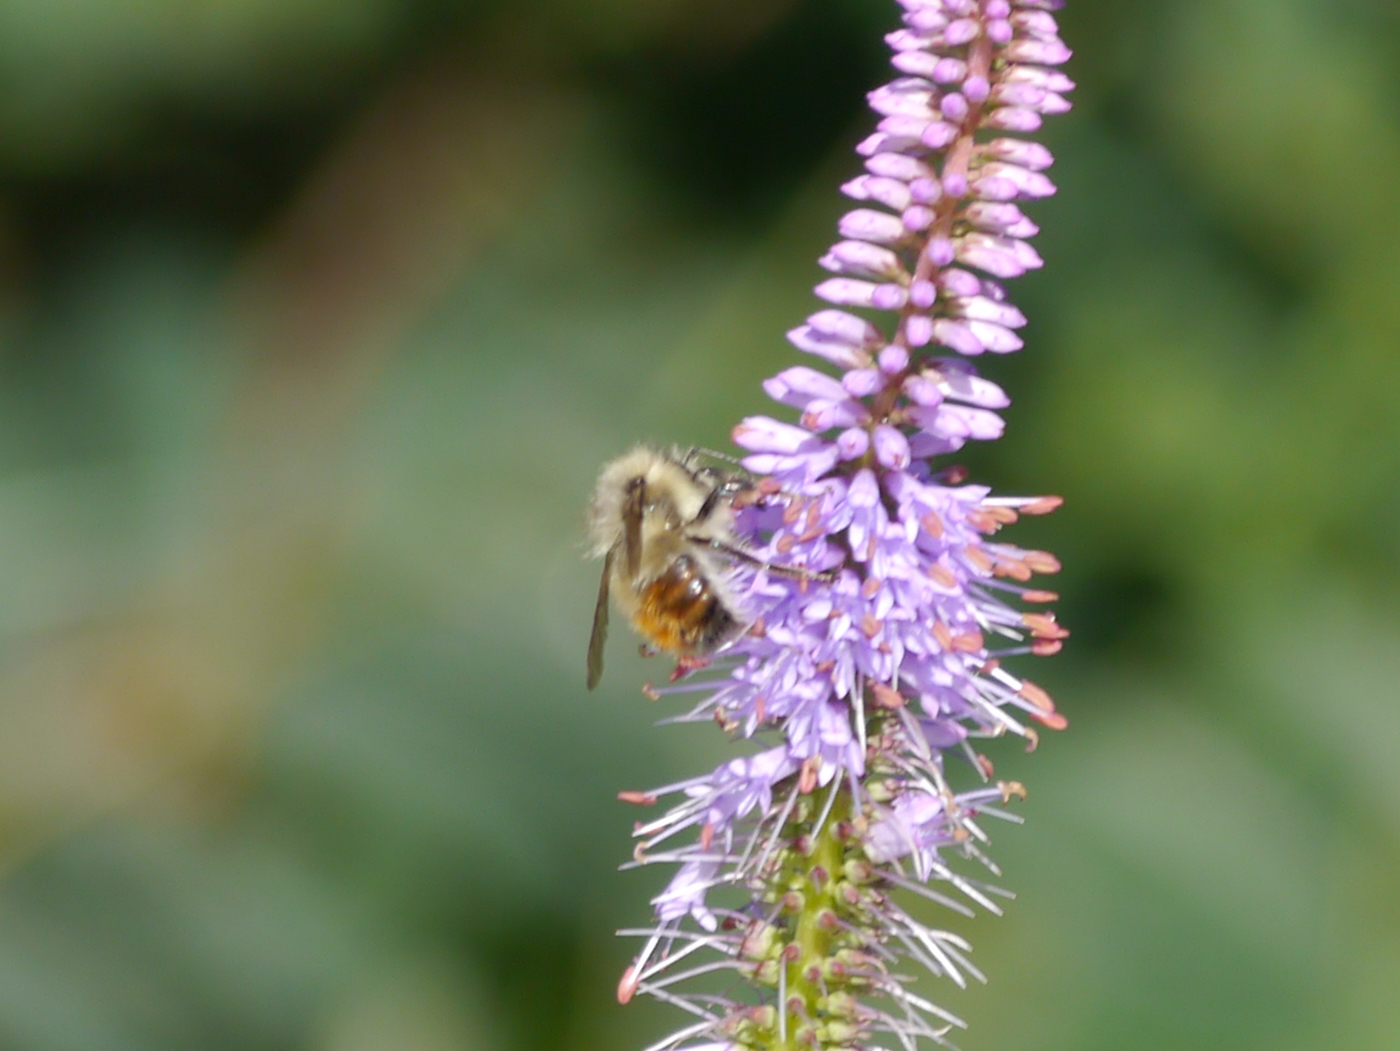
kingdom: Animalia
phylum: Arthropoda
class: Insecta
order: Hymenoptera
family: Apidae
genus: Bombus
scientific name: Bombus flavifrons
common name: Yellow head bumble bee
